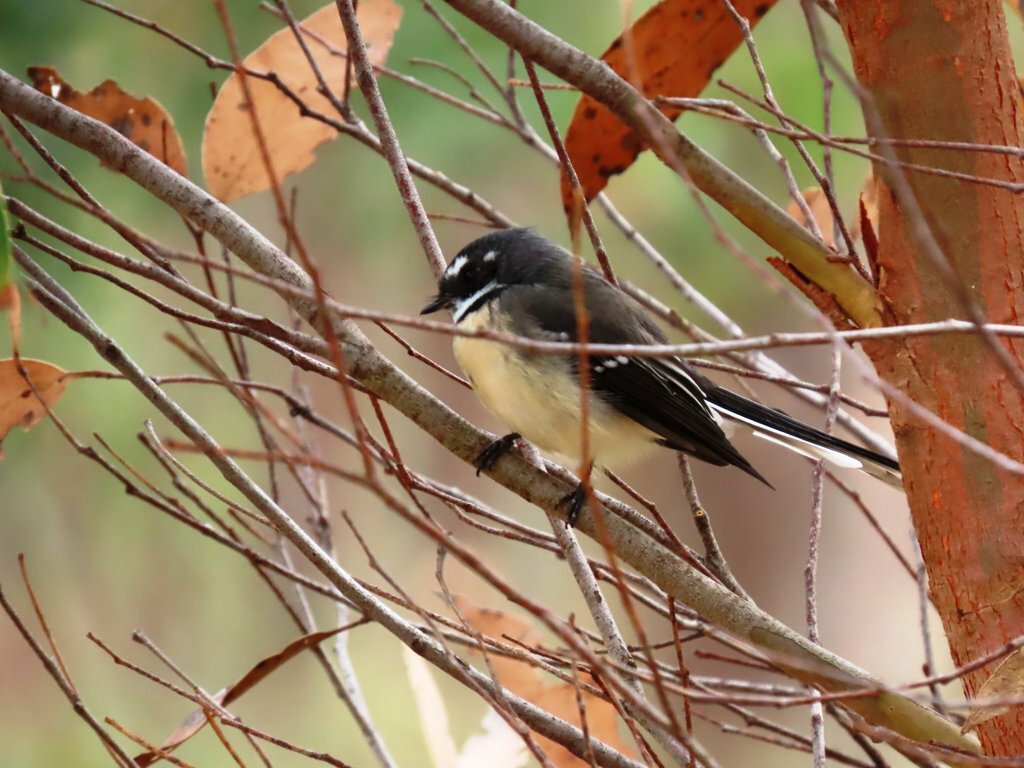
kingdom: Animalia
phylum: Chordata
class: Aves
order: Passeriformes
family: Rhipiduridae
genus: Rhipidura
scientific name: Rhipidura albiscapa
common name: Grey fantail
